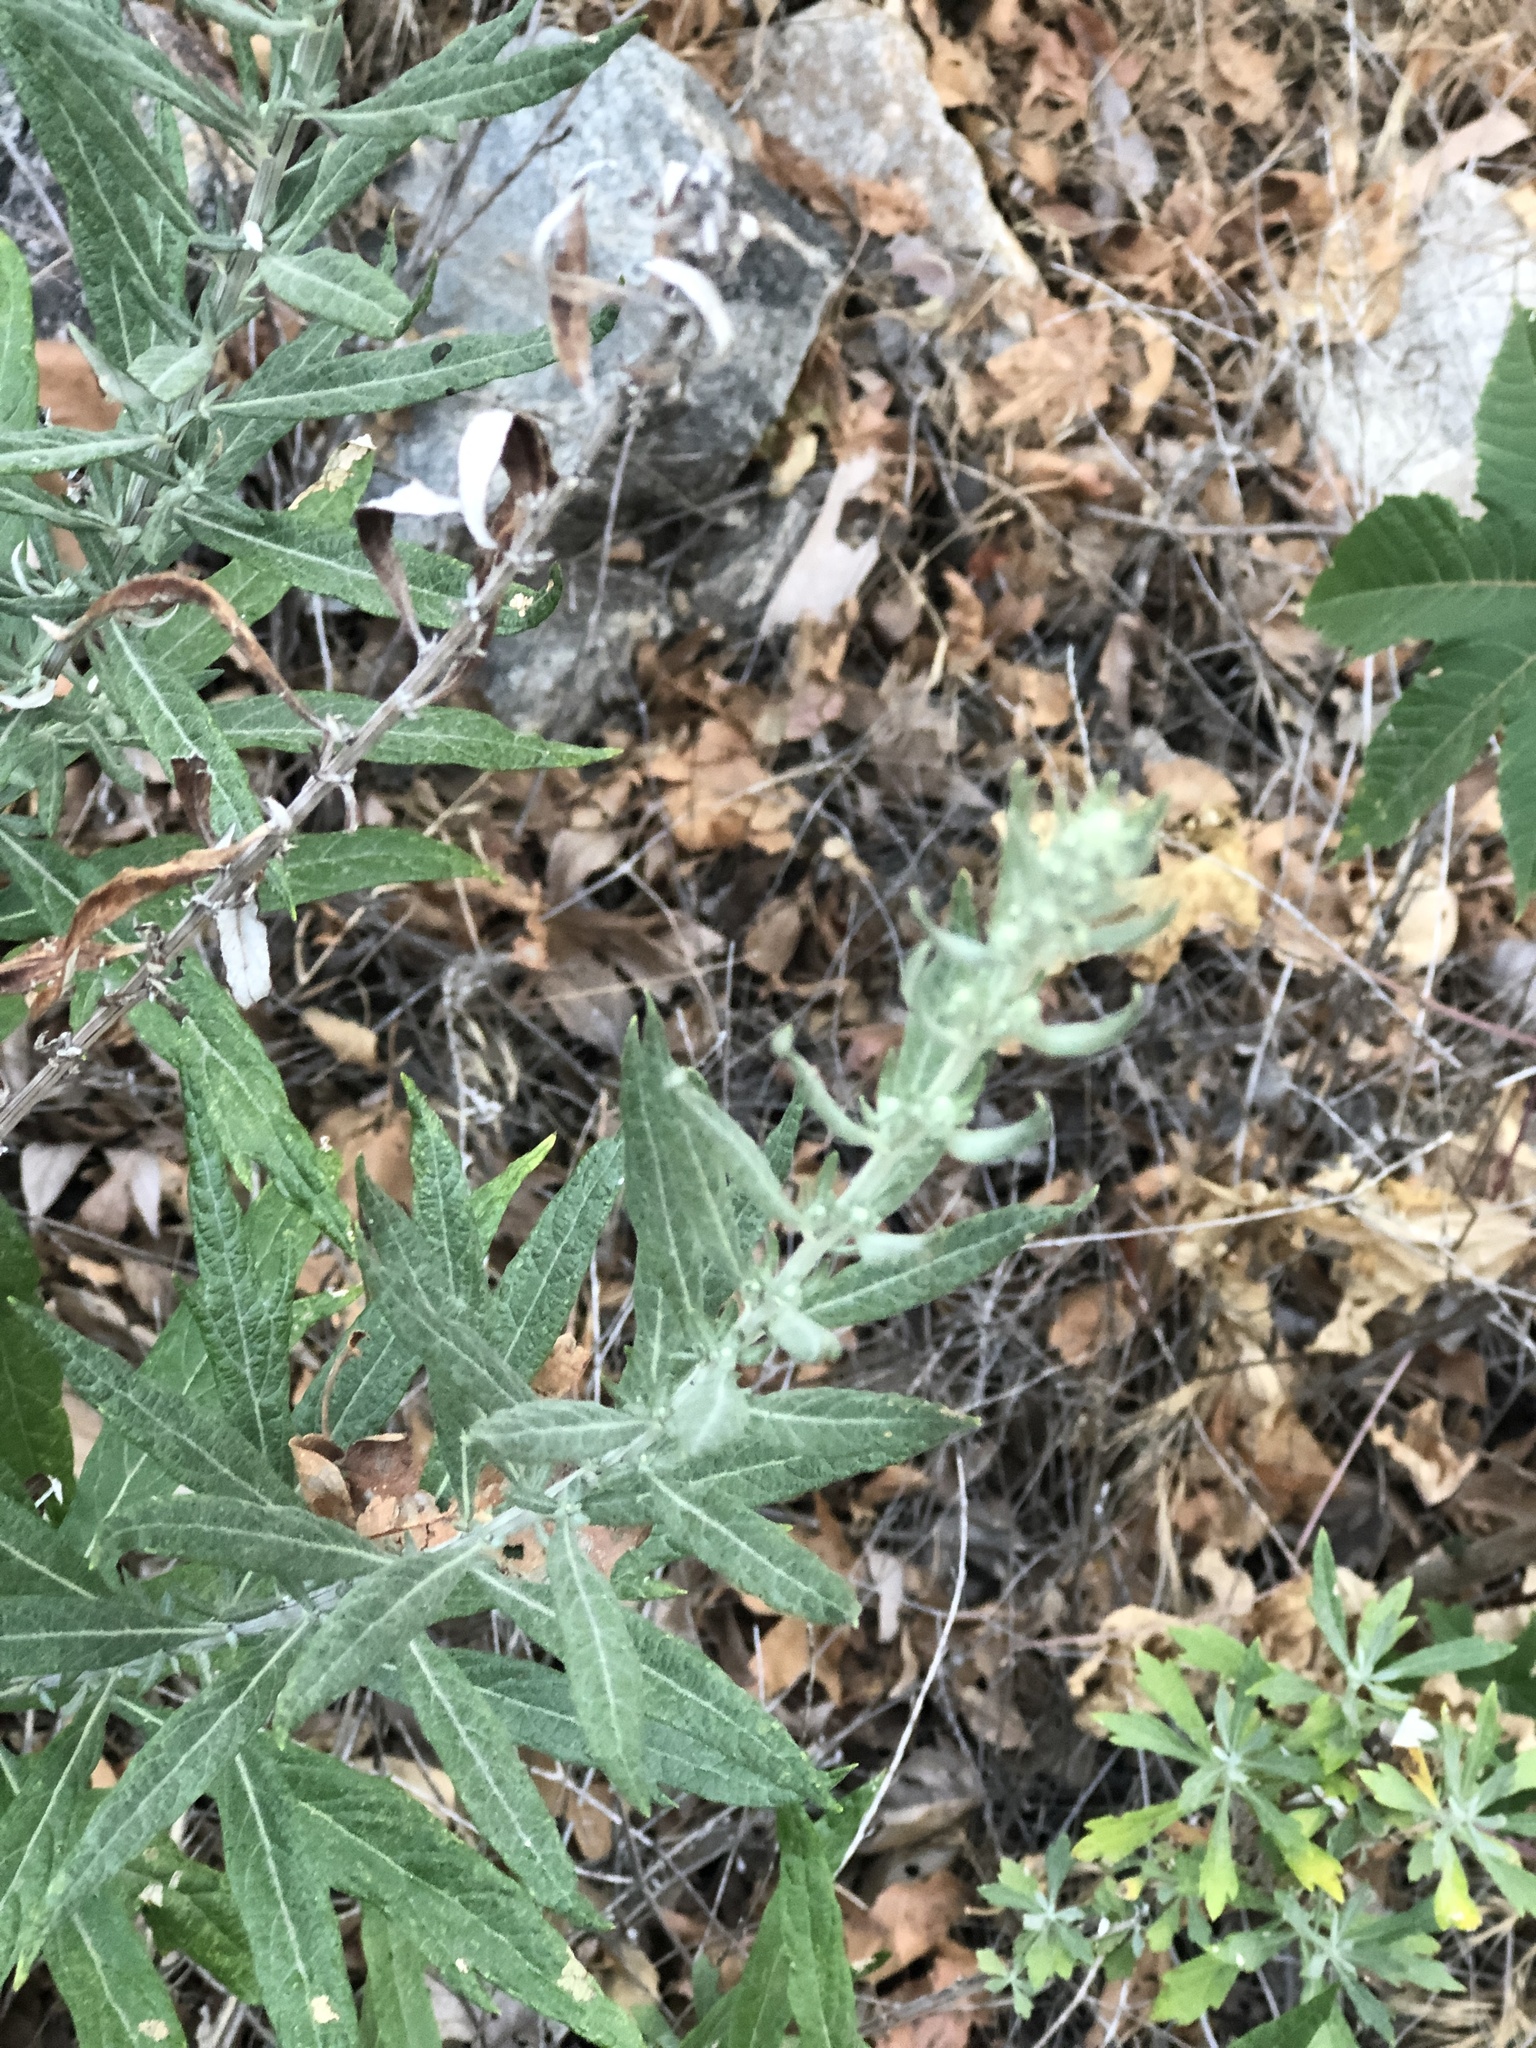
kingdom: Plantae
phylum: Tracheophyta
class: Magnoliopsida
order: Asterales
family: Asteraceae
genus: Artemisia
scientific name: Artemisia douglasiana
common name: Northwest mugwort
